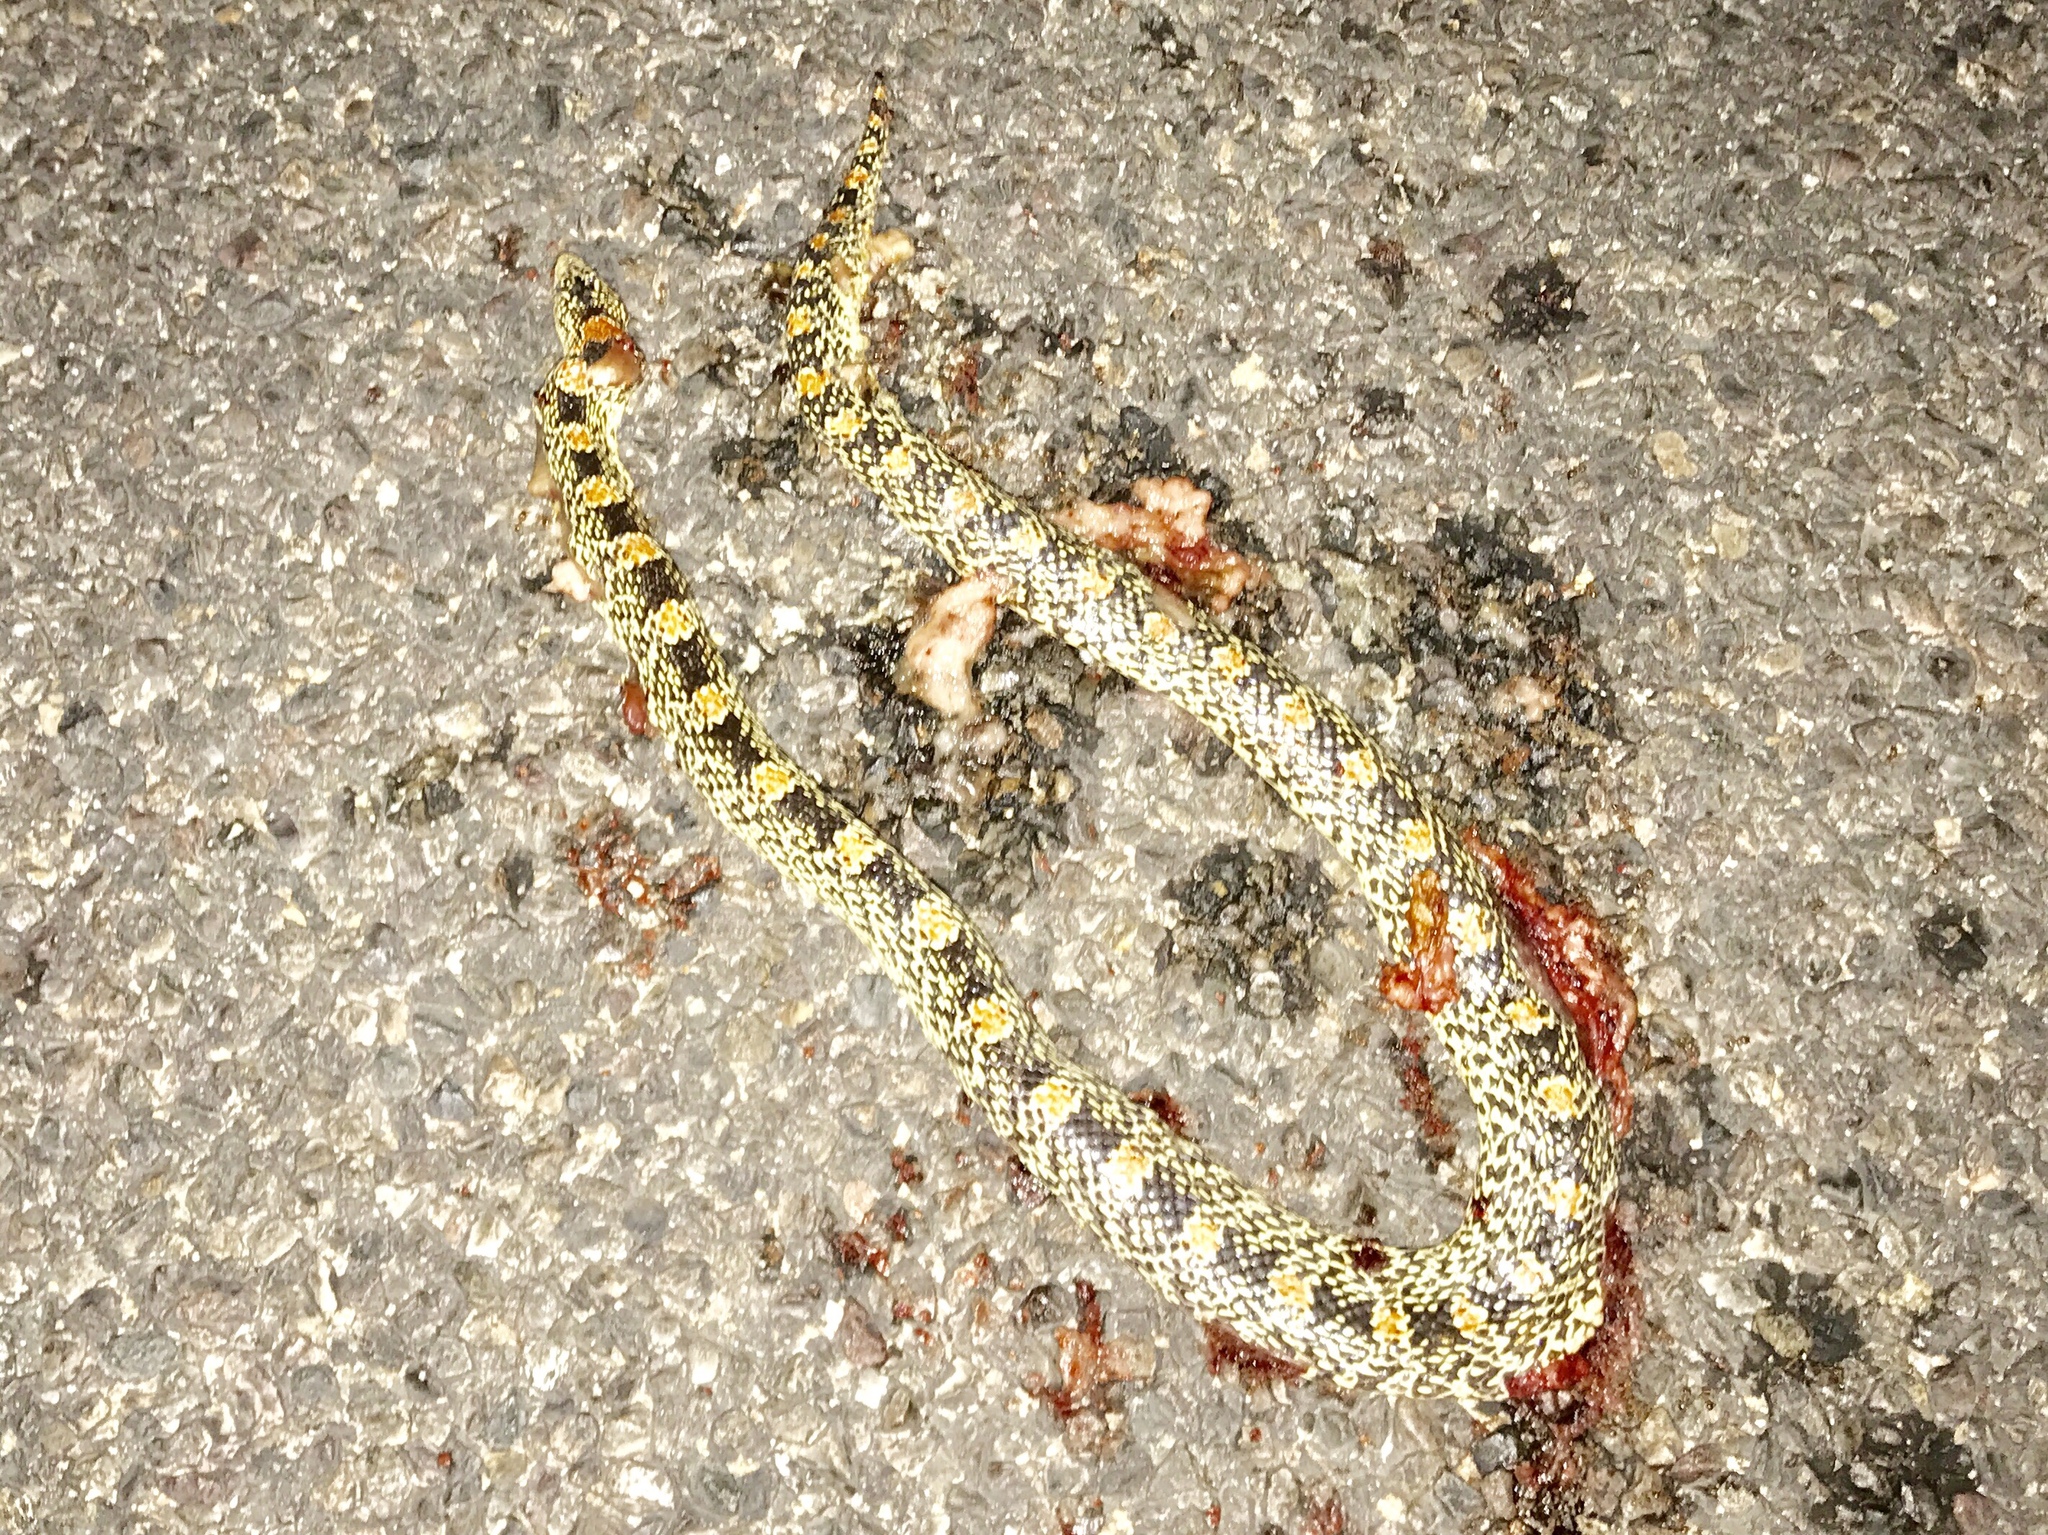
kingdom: Animalia
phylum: Chordata
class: Squamata
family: Colubridae
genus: Rhinocheilus
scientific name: Rhinocheilus lecontei
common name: Longnose snake
